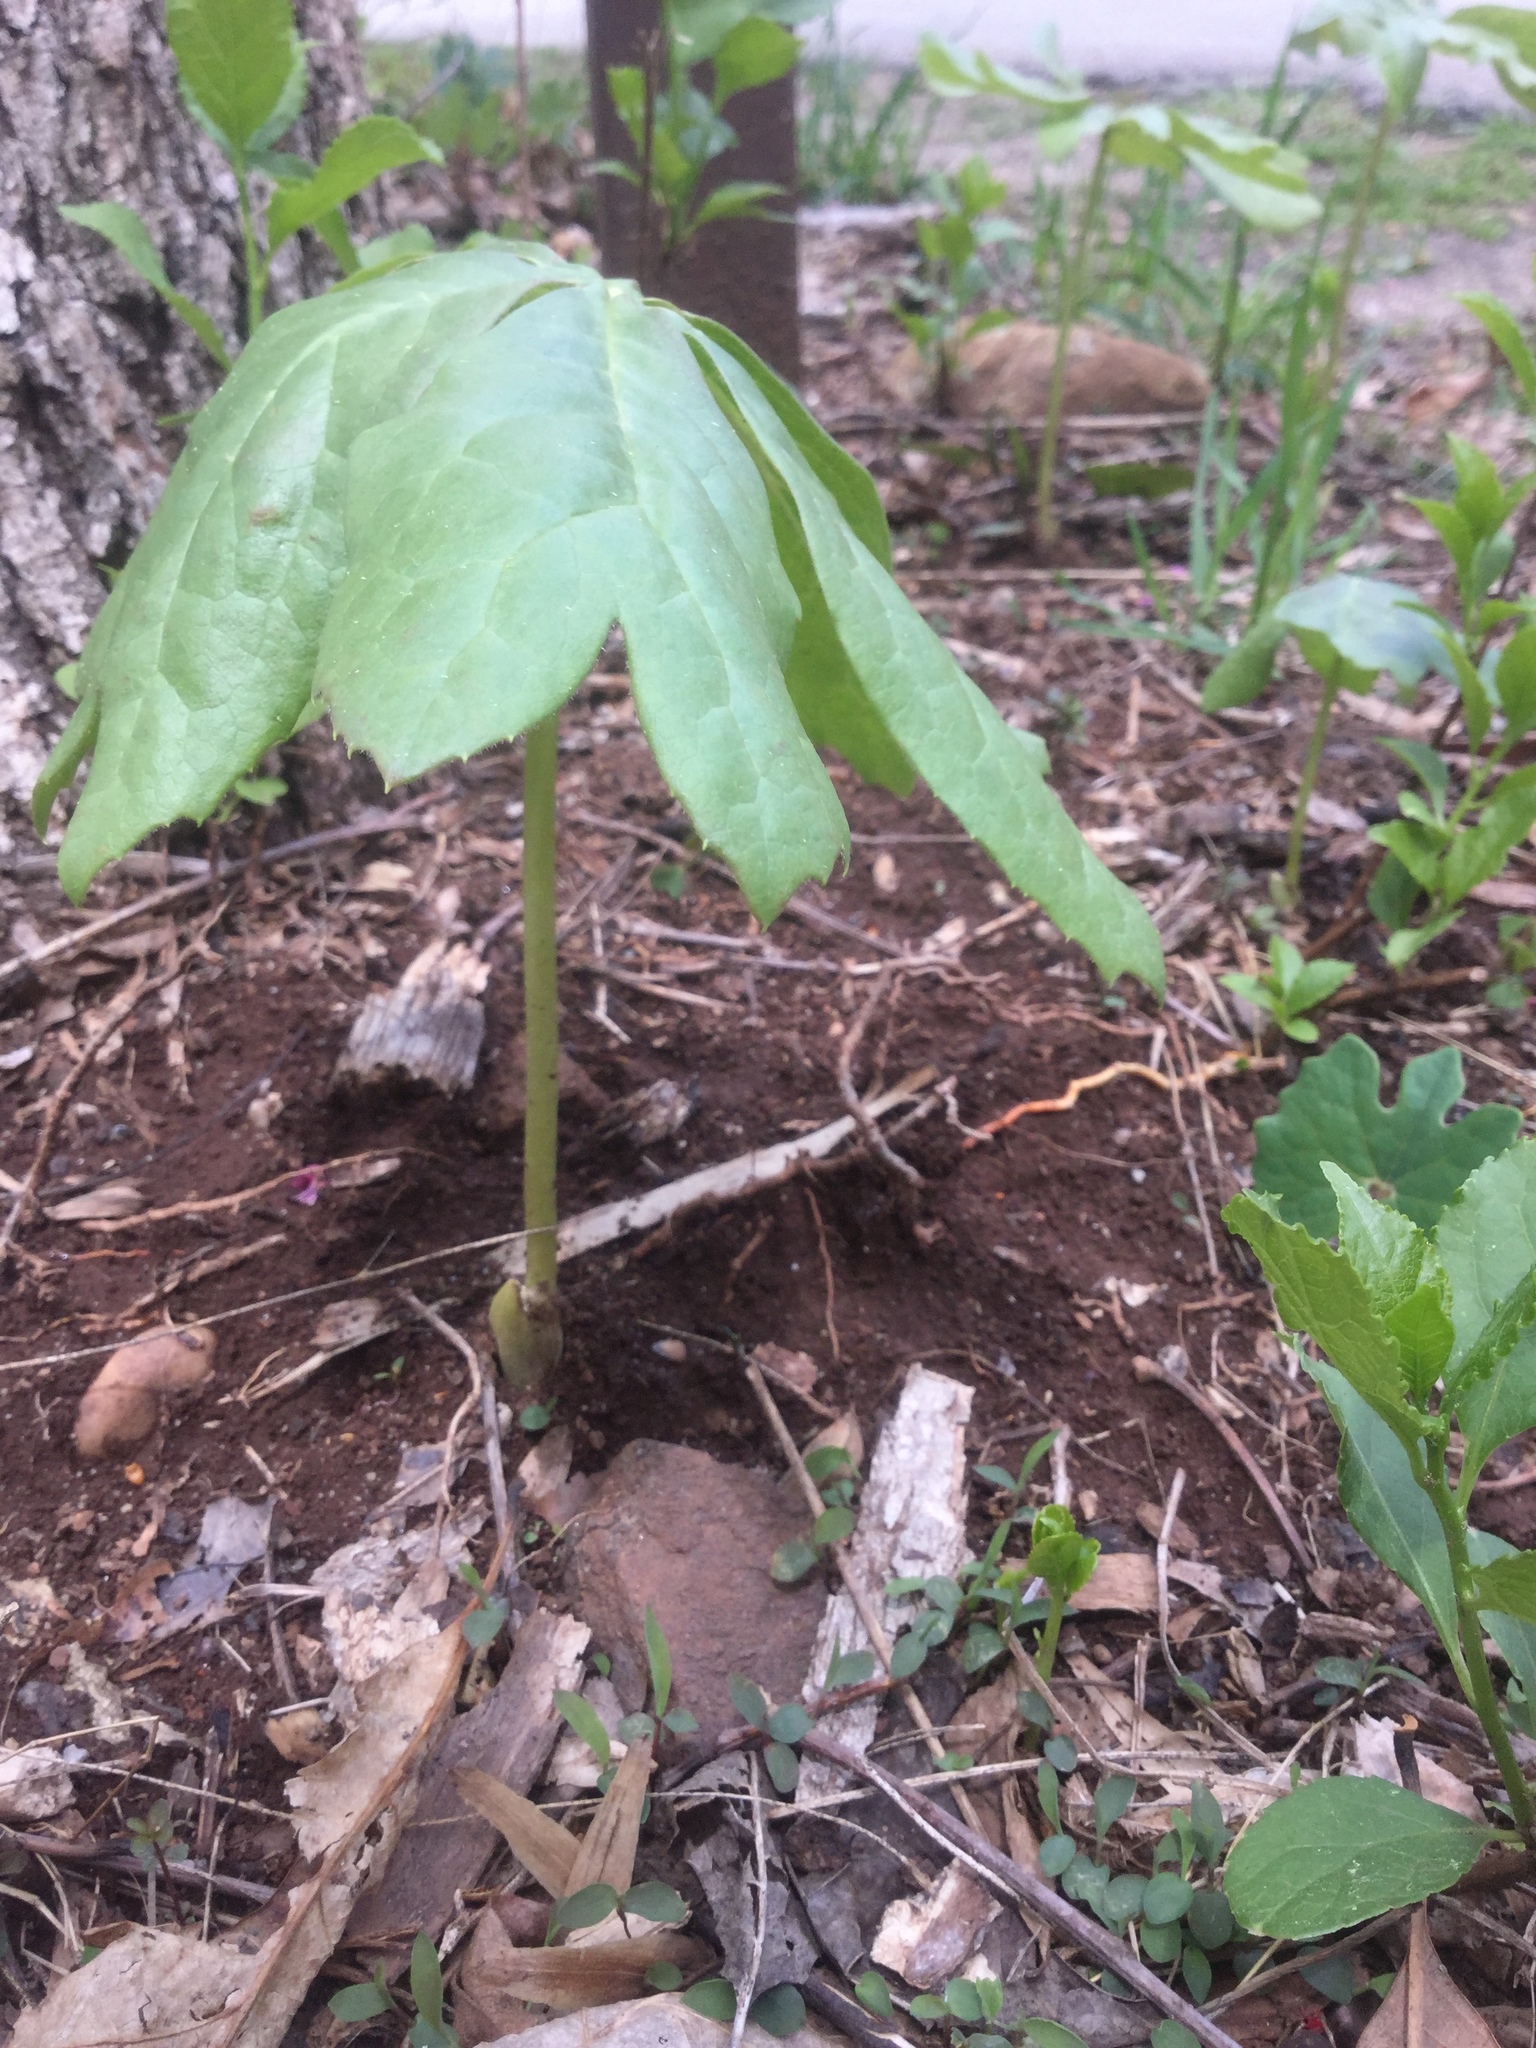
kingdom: Plantae
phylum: Tracheophyta
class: Magnoliopsida
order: Ranunculales
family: Berberidaceae
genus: Podophyllum
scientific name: Podophyllum peltatum
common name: Wild mandrake
